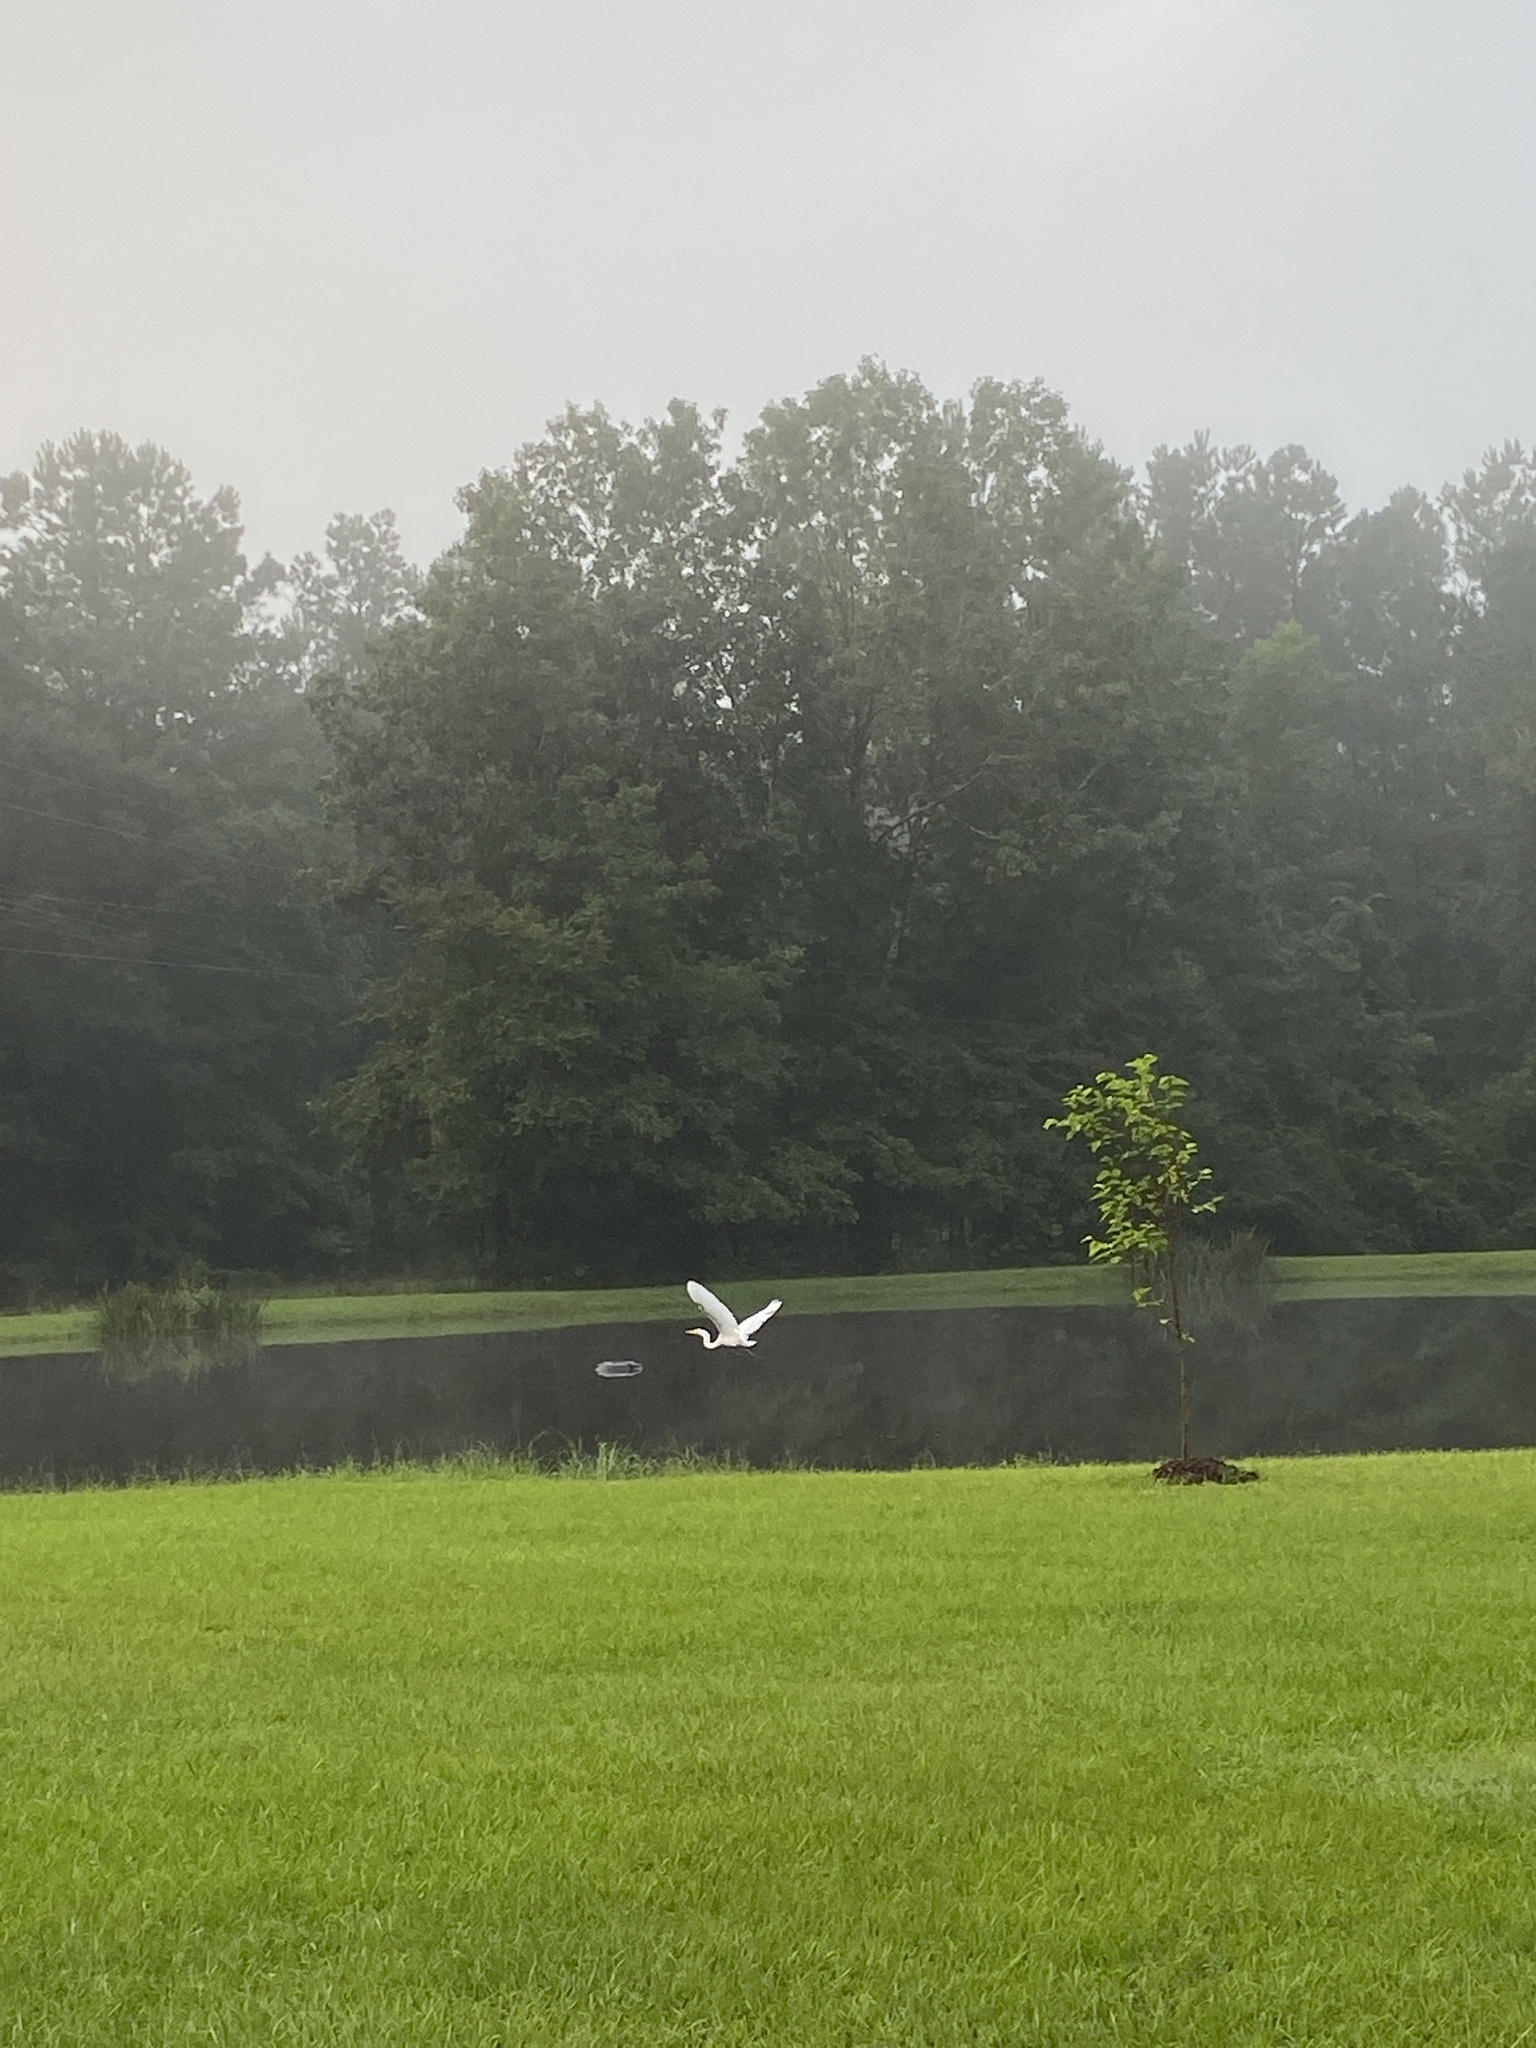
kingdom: Animalia
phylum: Chordata
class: Aves
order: Pelecaniformes
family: Ardeidae
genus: Ardea
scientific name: Ardea alba
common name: Great egret
